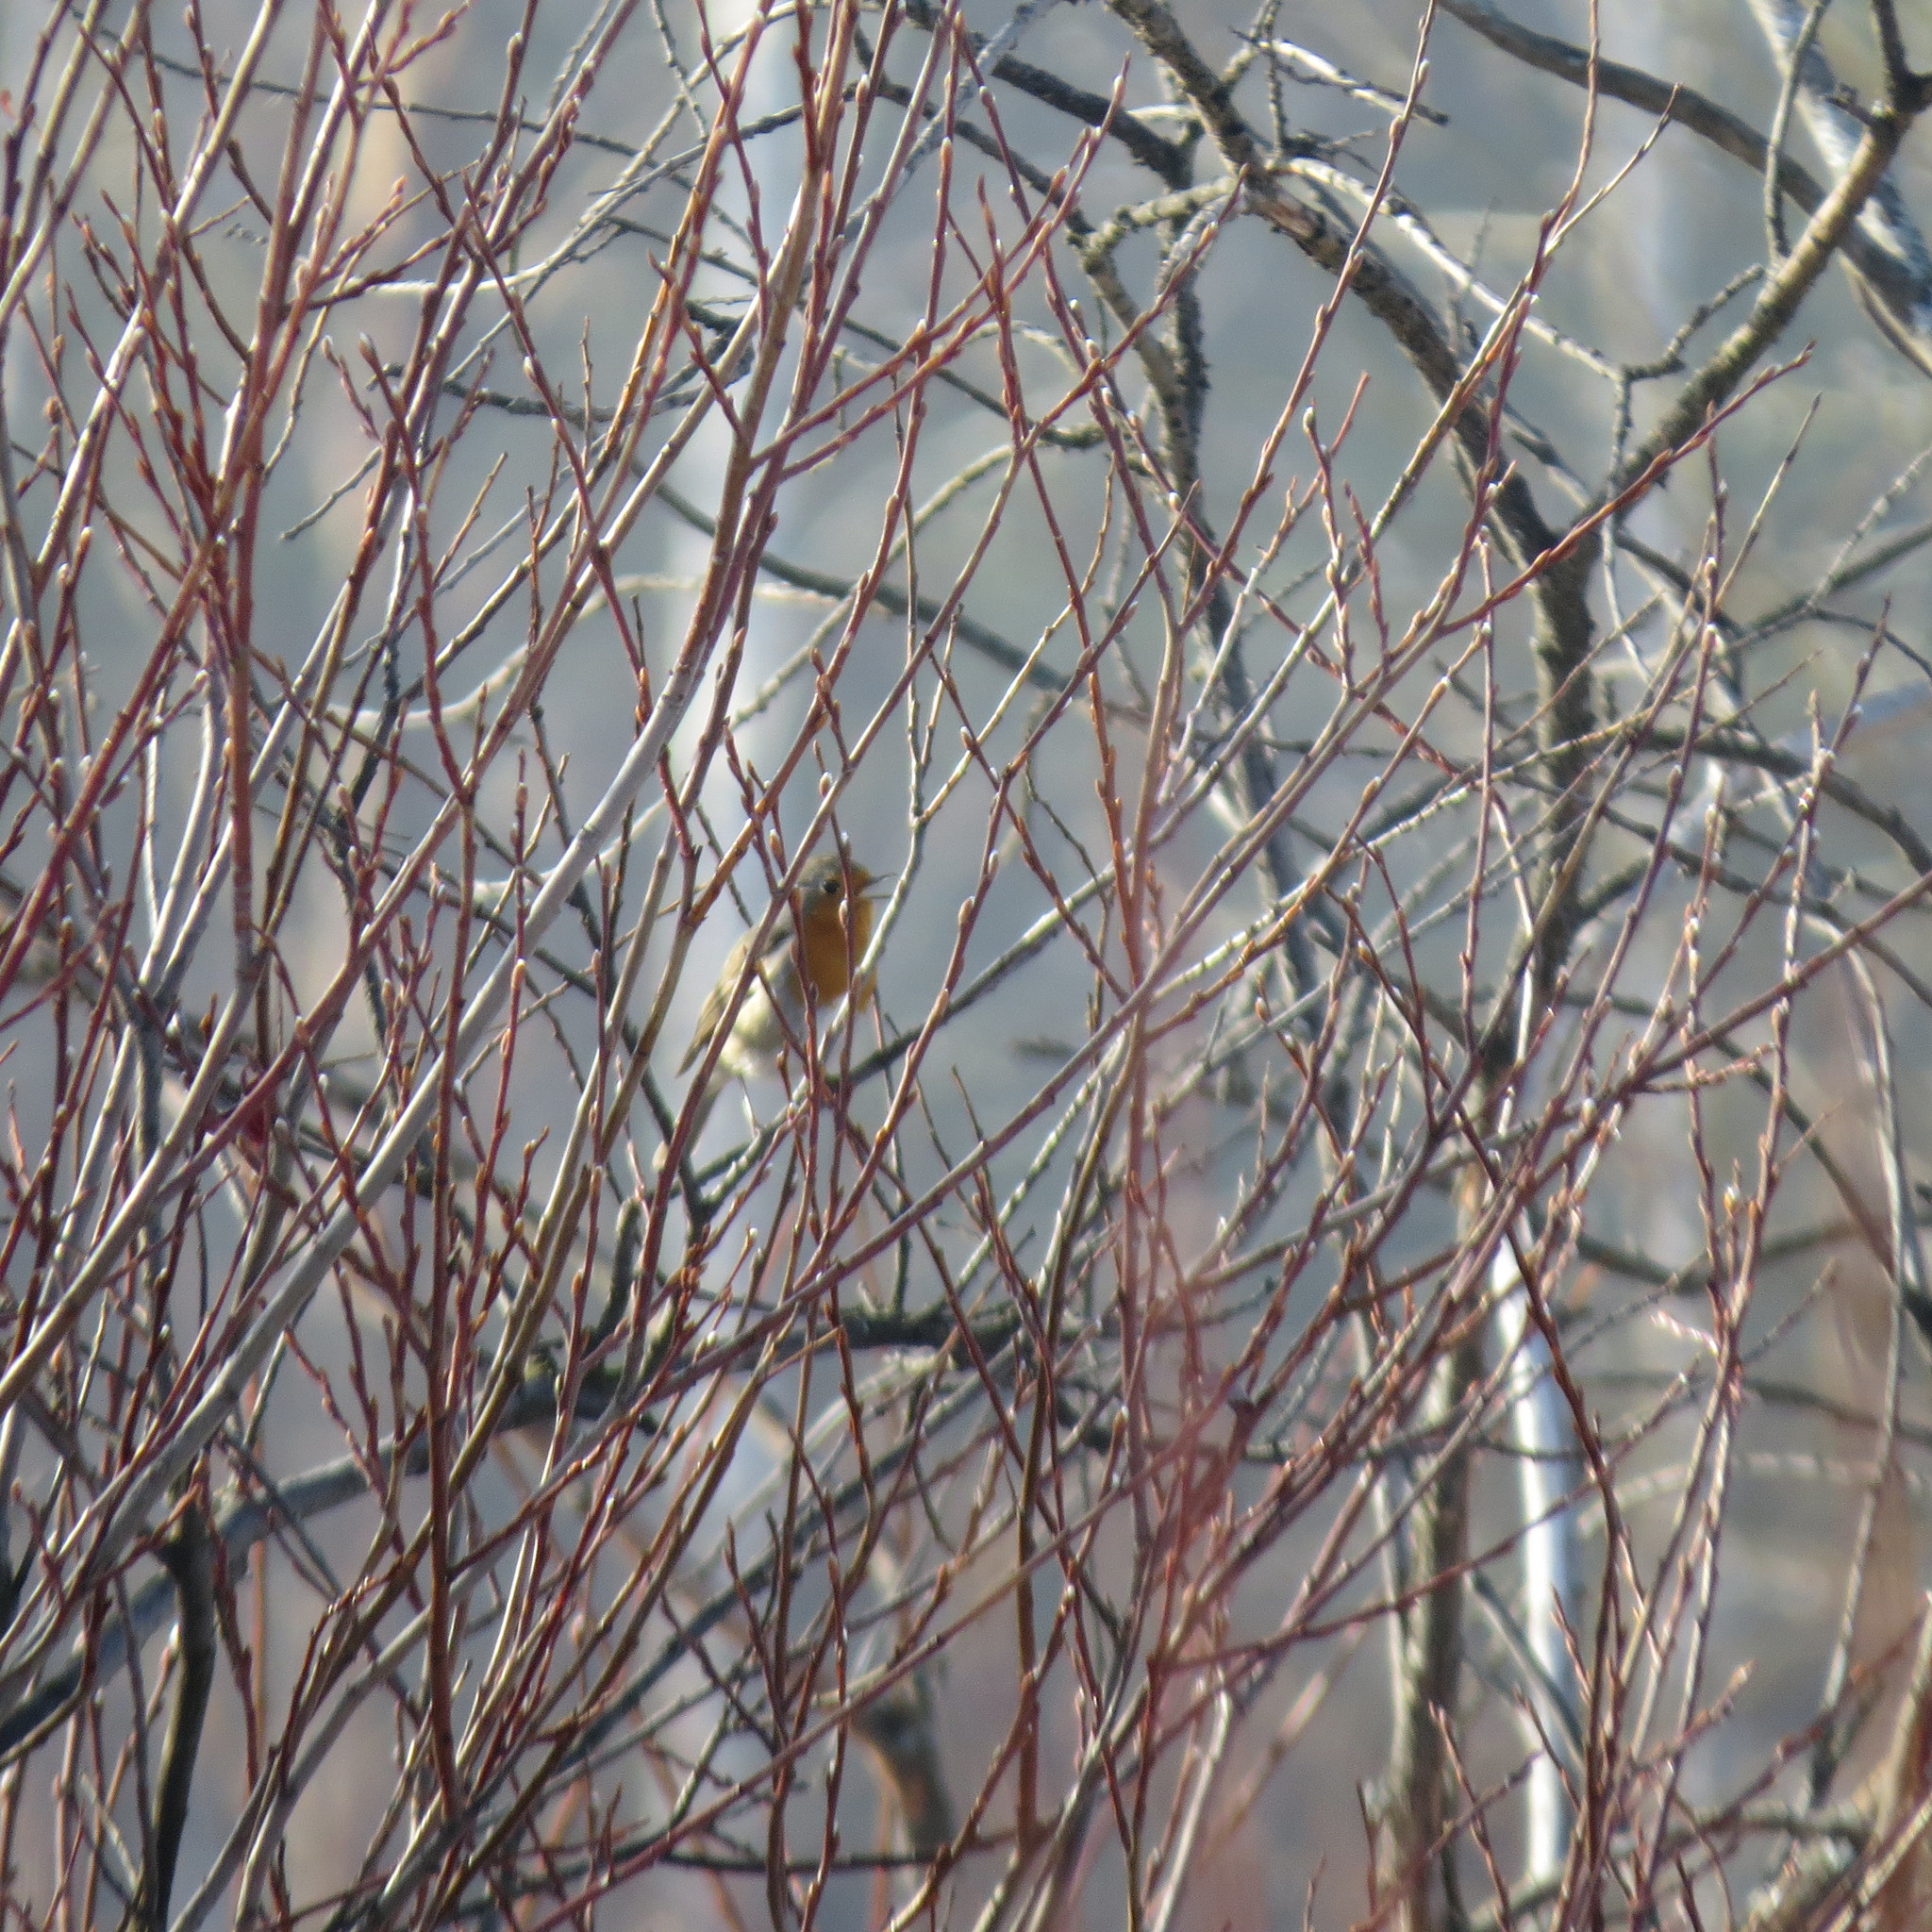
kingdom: Animalia
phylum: Chordata
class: Aves
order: Passeriformes
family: Muscicapidae
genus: Erithacus
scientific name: Erithacus rubecula
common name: European robin
